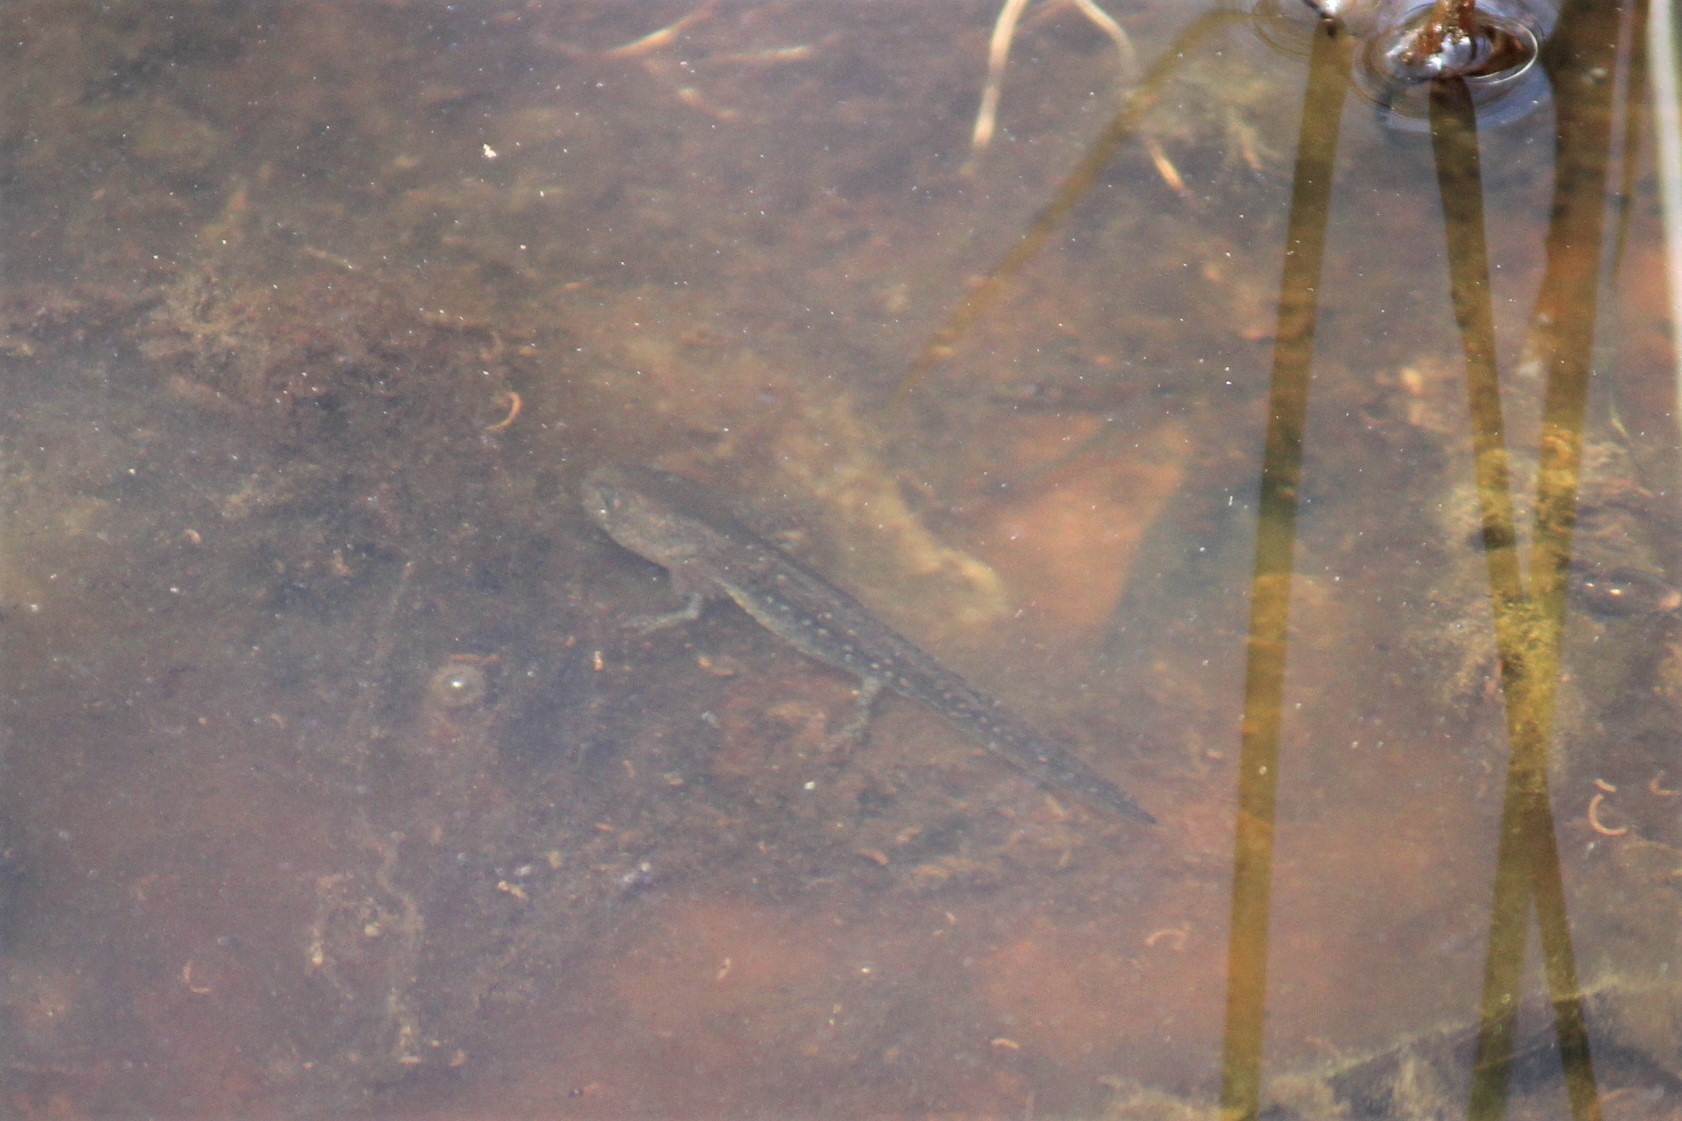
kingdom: Animalia
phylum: Chordata
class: Amphibia
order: Caudata
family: Ambystomatidae
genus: Ambystoma
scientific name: Ambystoma opacum
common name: Marbled salamander
